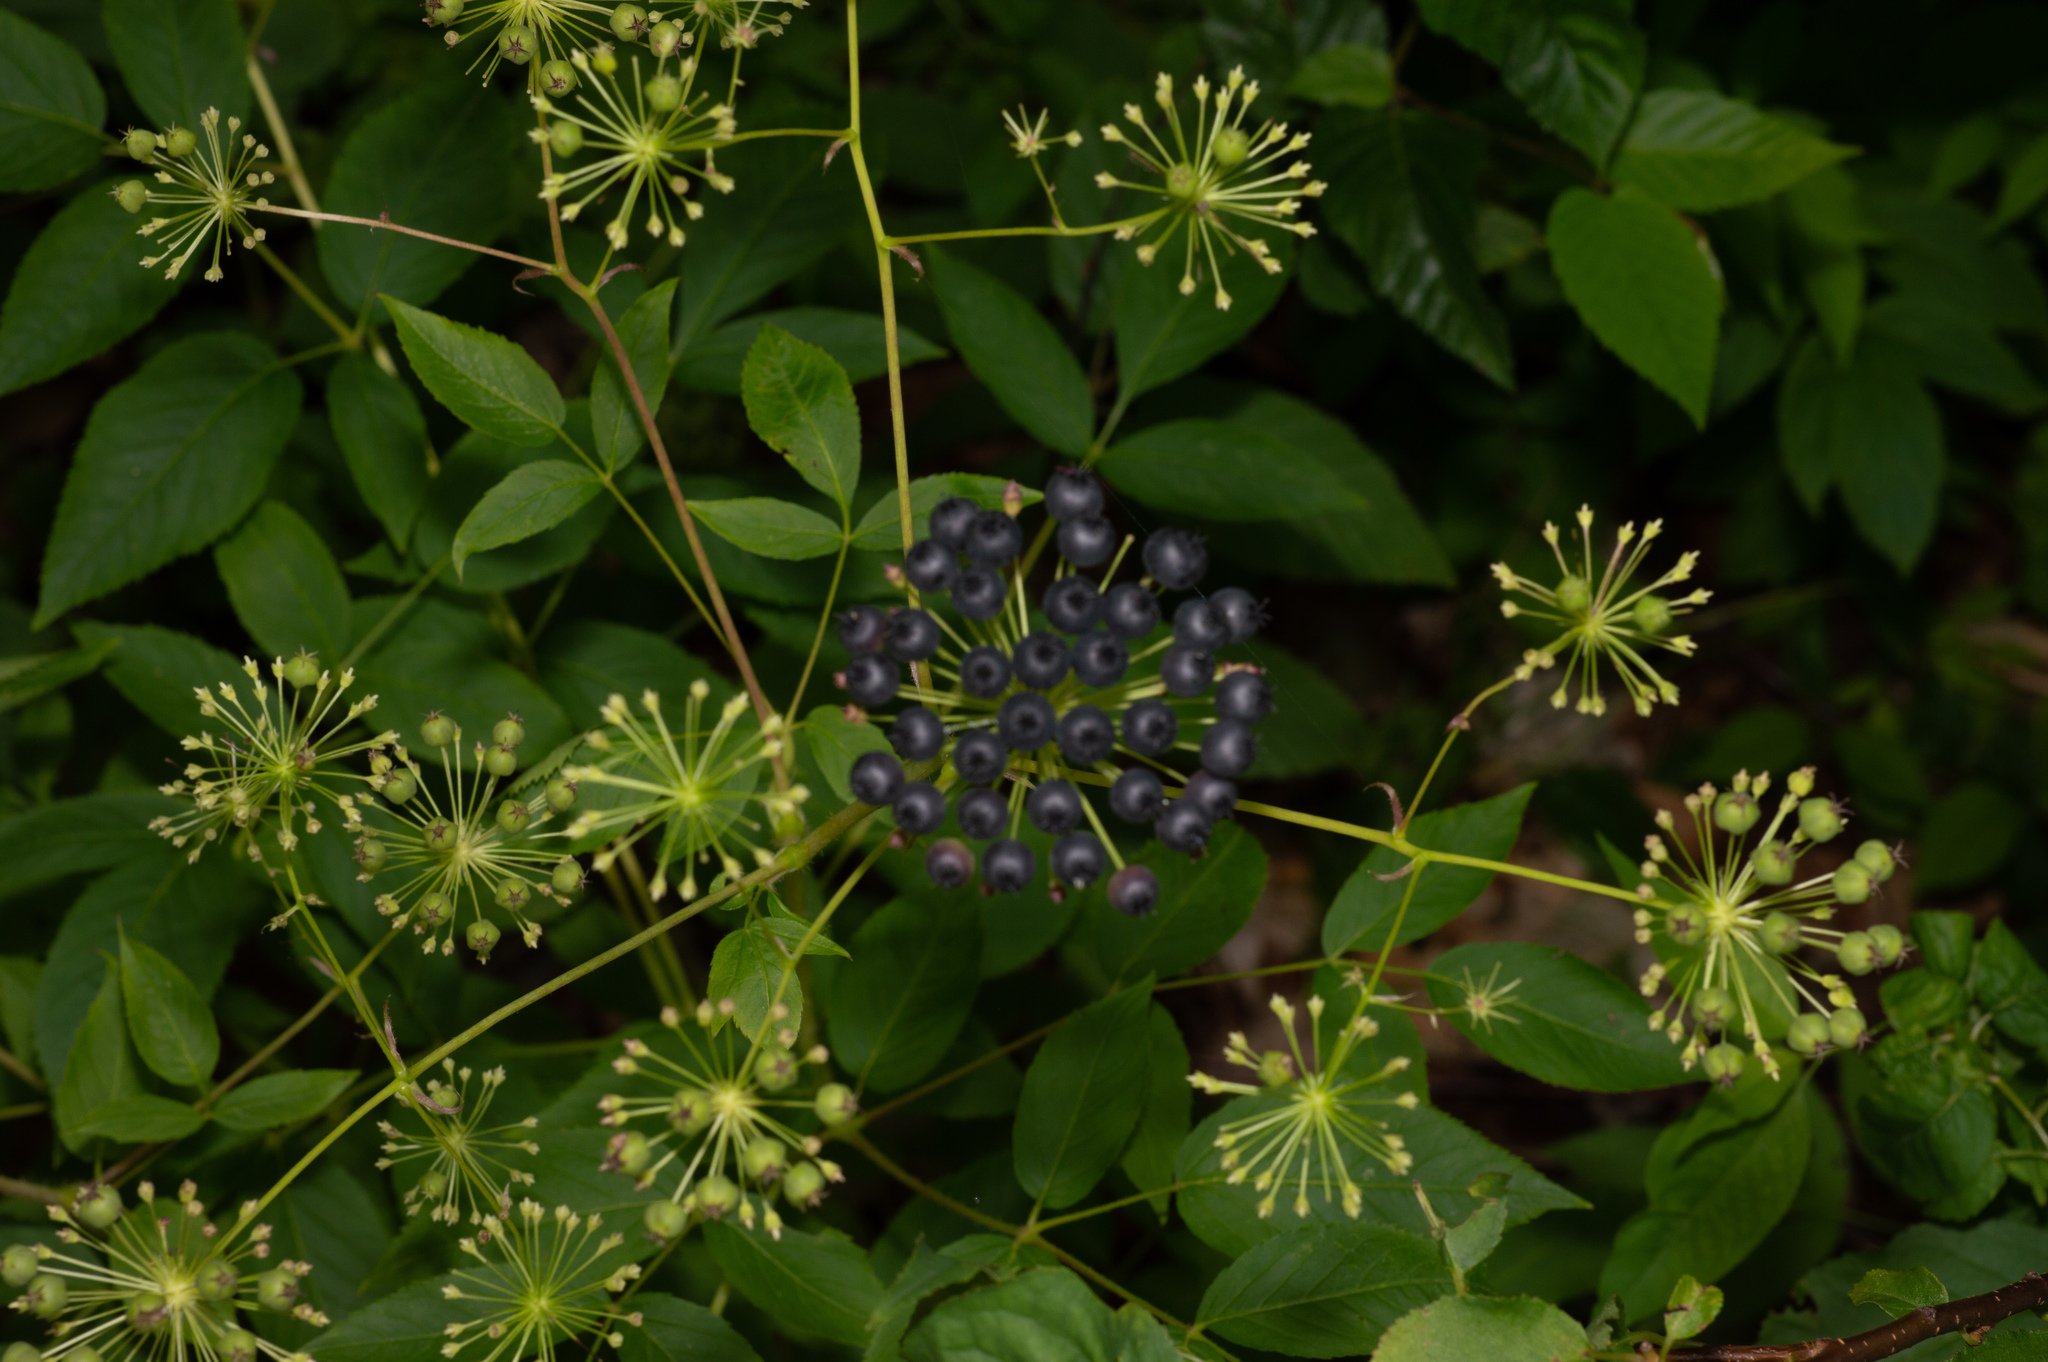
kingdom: Plantae
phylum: Tracheophyta
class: Magnoliopsida
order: Apiales
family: Araliaceae
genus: Aralia
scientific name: Aralia hispida
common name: Bristly sarsaparilla
